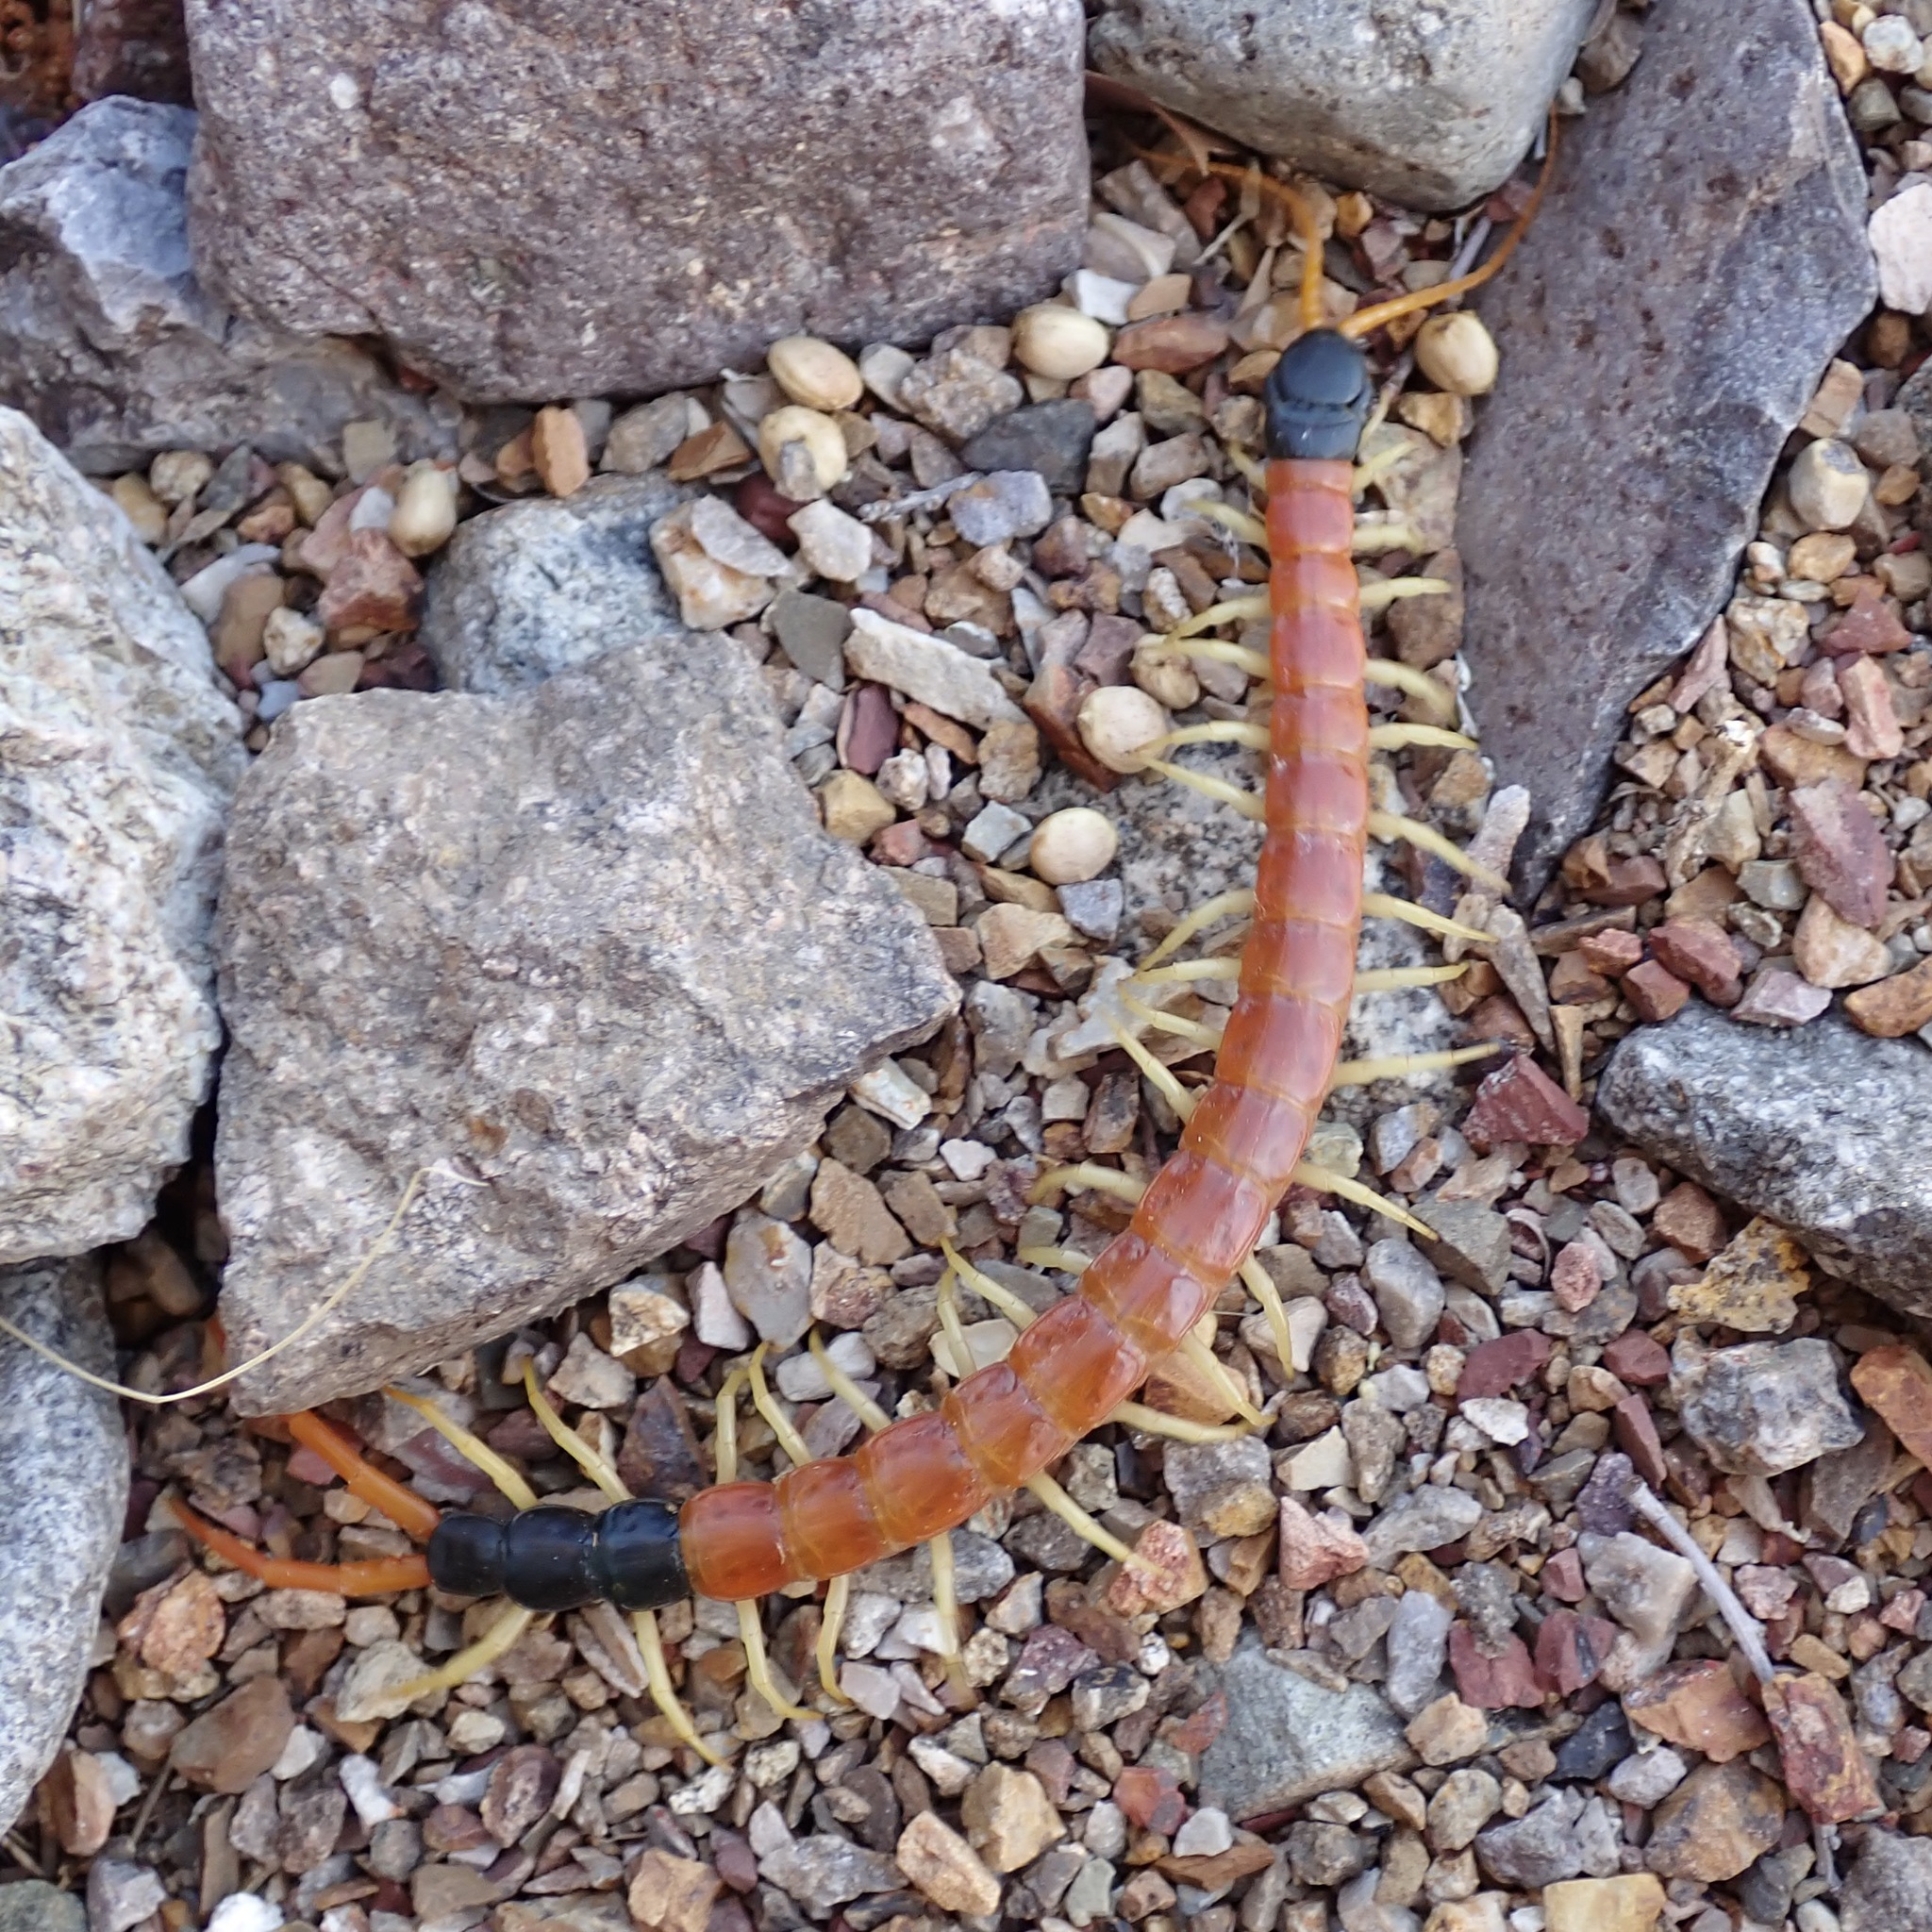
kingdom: Animalia
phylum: Arthropoda
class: Chilopoda
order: Scolopendromorpha
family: Scolopendridae
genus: Scolopendra
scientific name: Scolopendra heros
